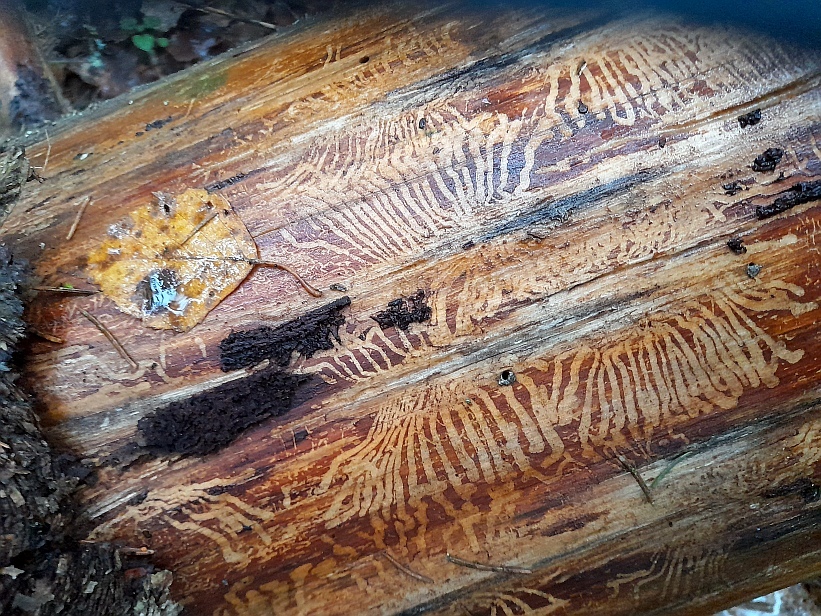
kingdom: Animalia
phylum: Arthropoda
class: Insecta
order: Coleoptera
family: Curculionidae
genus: Ips
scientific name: Ips typographus
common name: Eight-toothed spruce bark beetle
